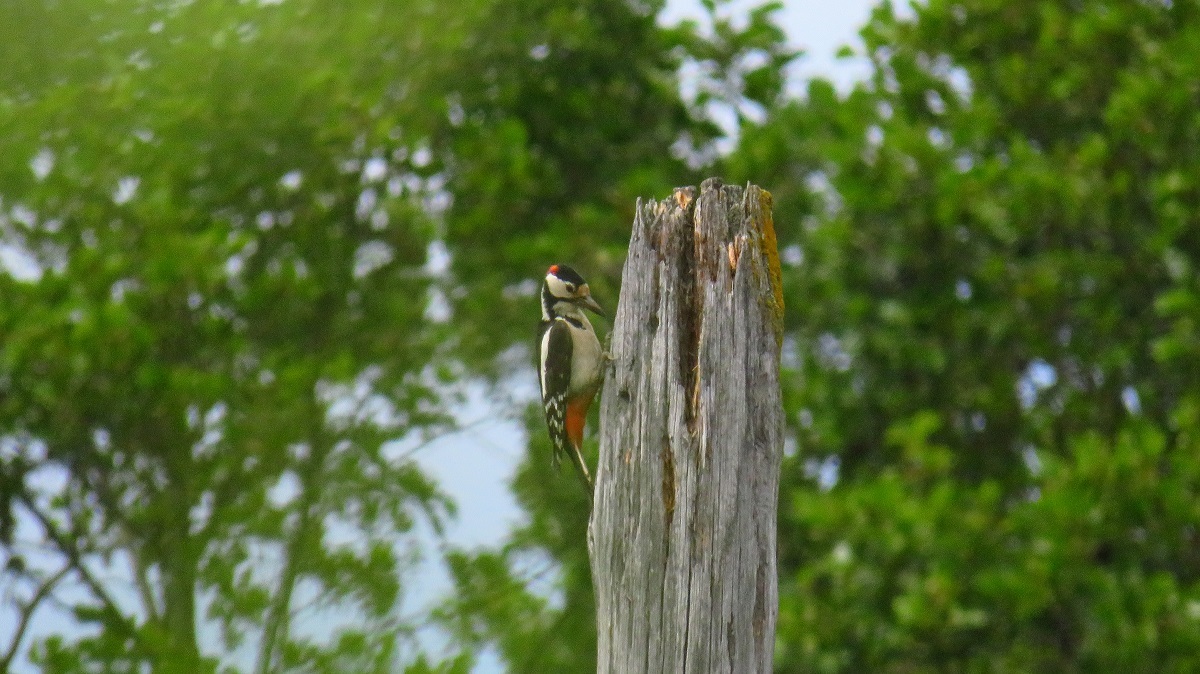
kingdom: Animalia
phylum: Chordata
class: Aves
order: Piciformes
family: Picidae
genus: Dendrocopos
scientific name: Dendrocopos major
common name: Great spotted woodpecker
